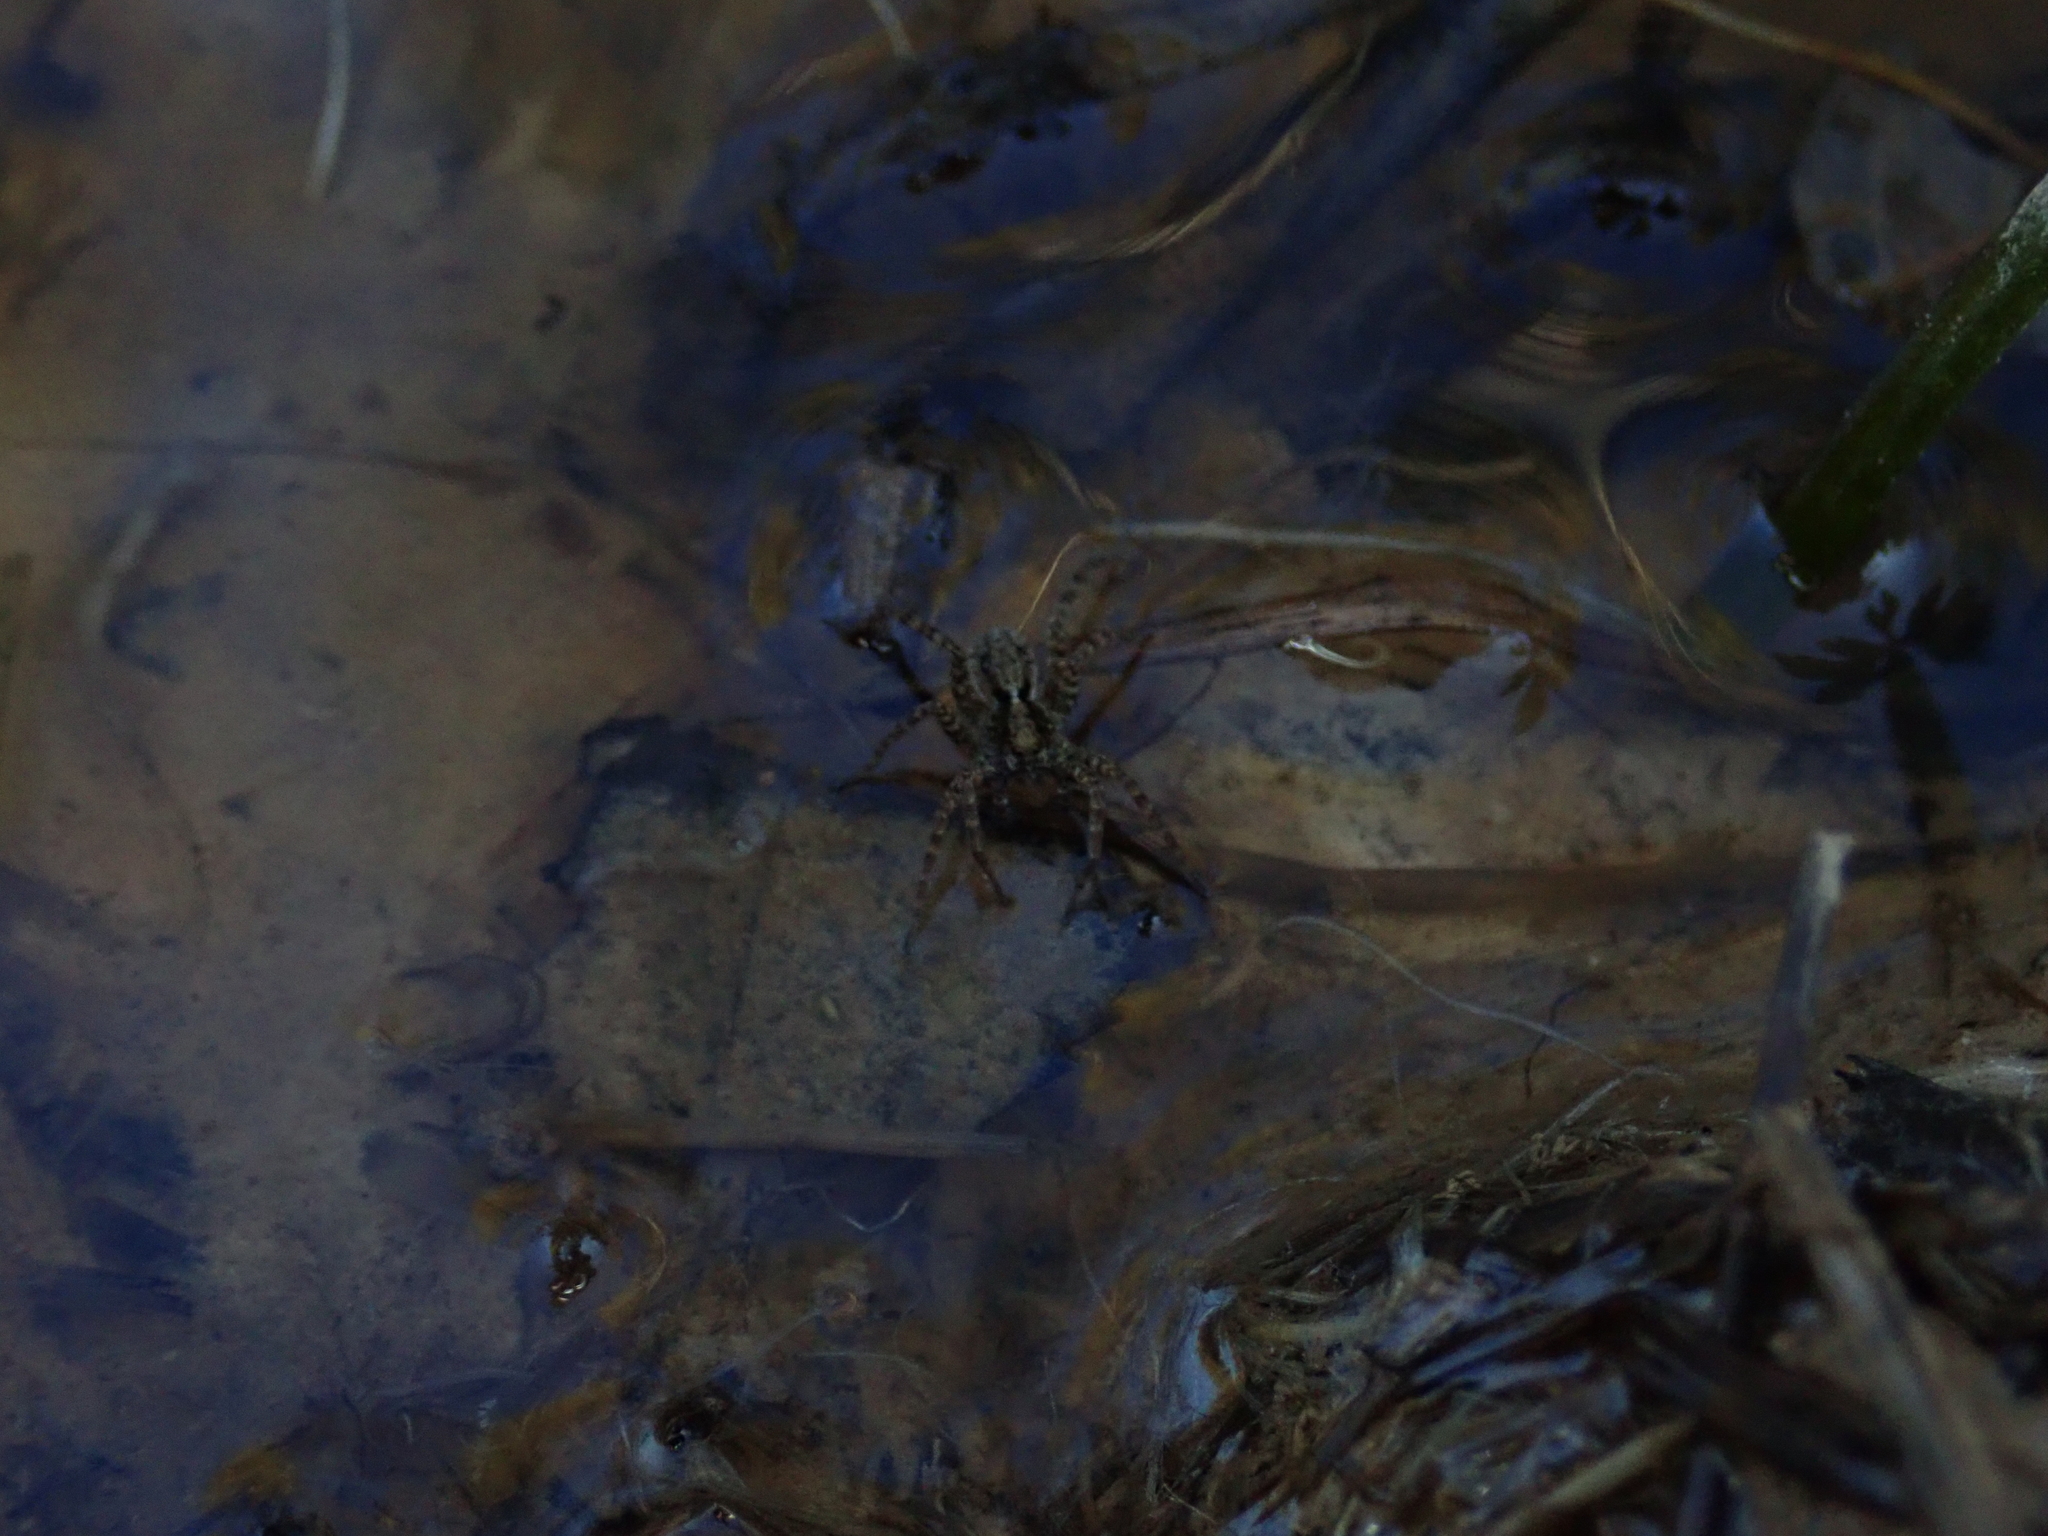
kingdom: Animalia
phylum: Arthropoda
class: Arachnida
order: Araneae
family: Lycosidae
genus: Pardosa
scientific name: Pardosa
